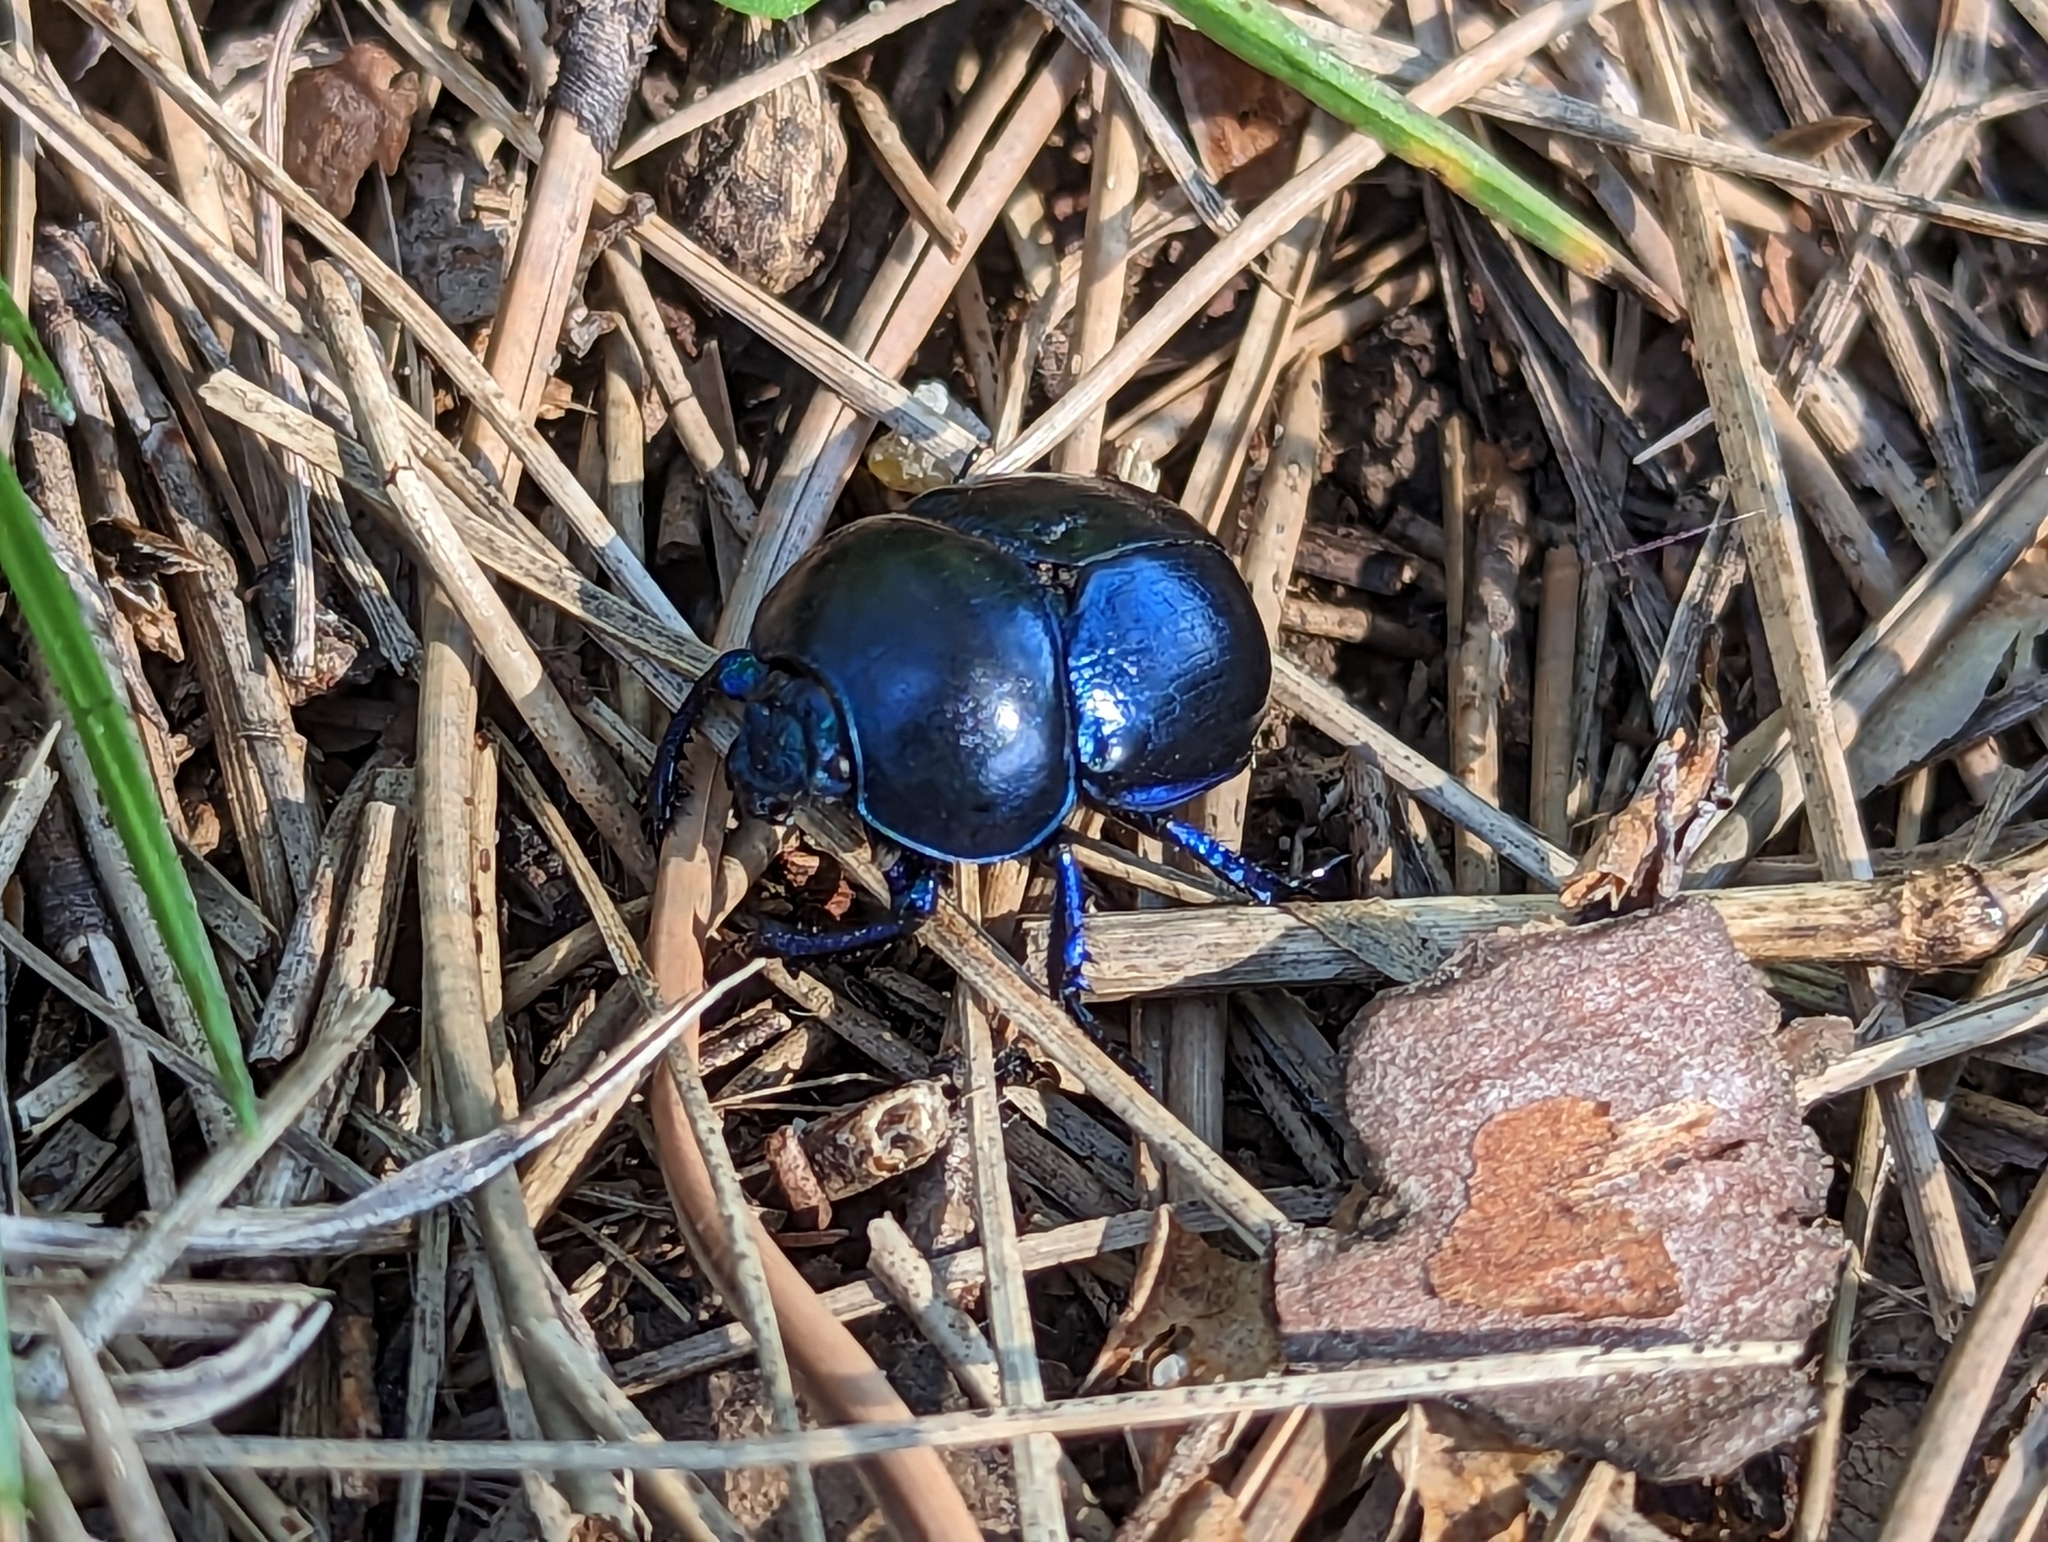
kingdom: Animalia
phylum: Arthropoda
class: Insecta
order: Coleoptera
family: Geotrupidae
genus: Trypocopris
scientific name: Trypocopris vernalis
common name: Spring dumbledor
